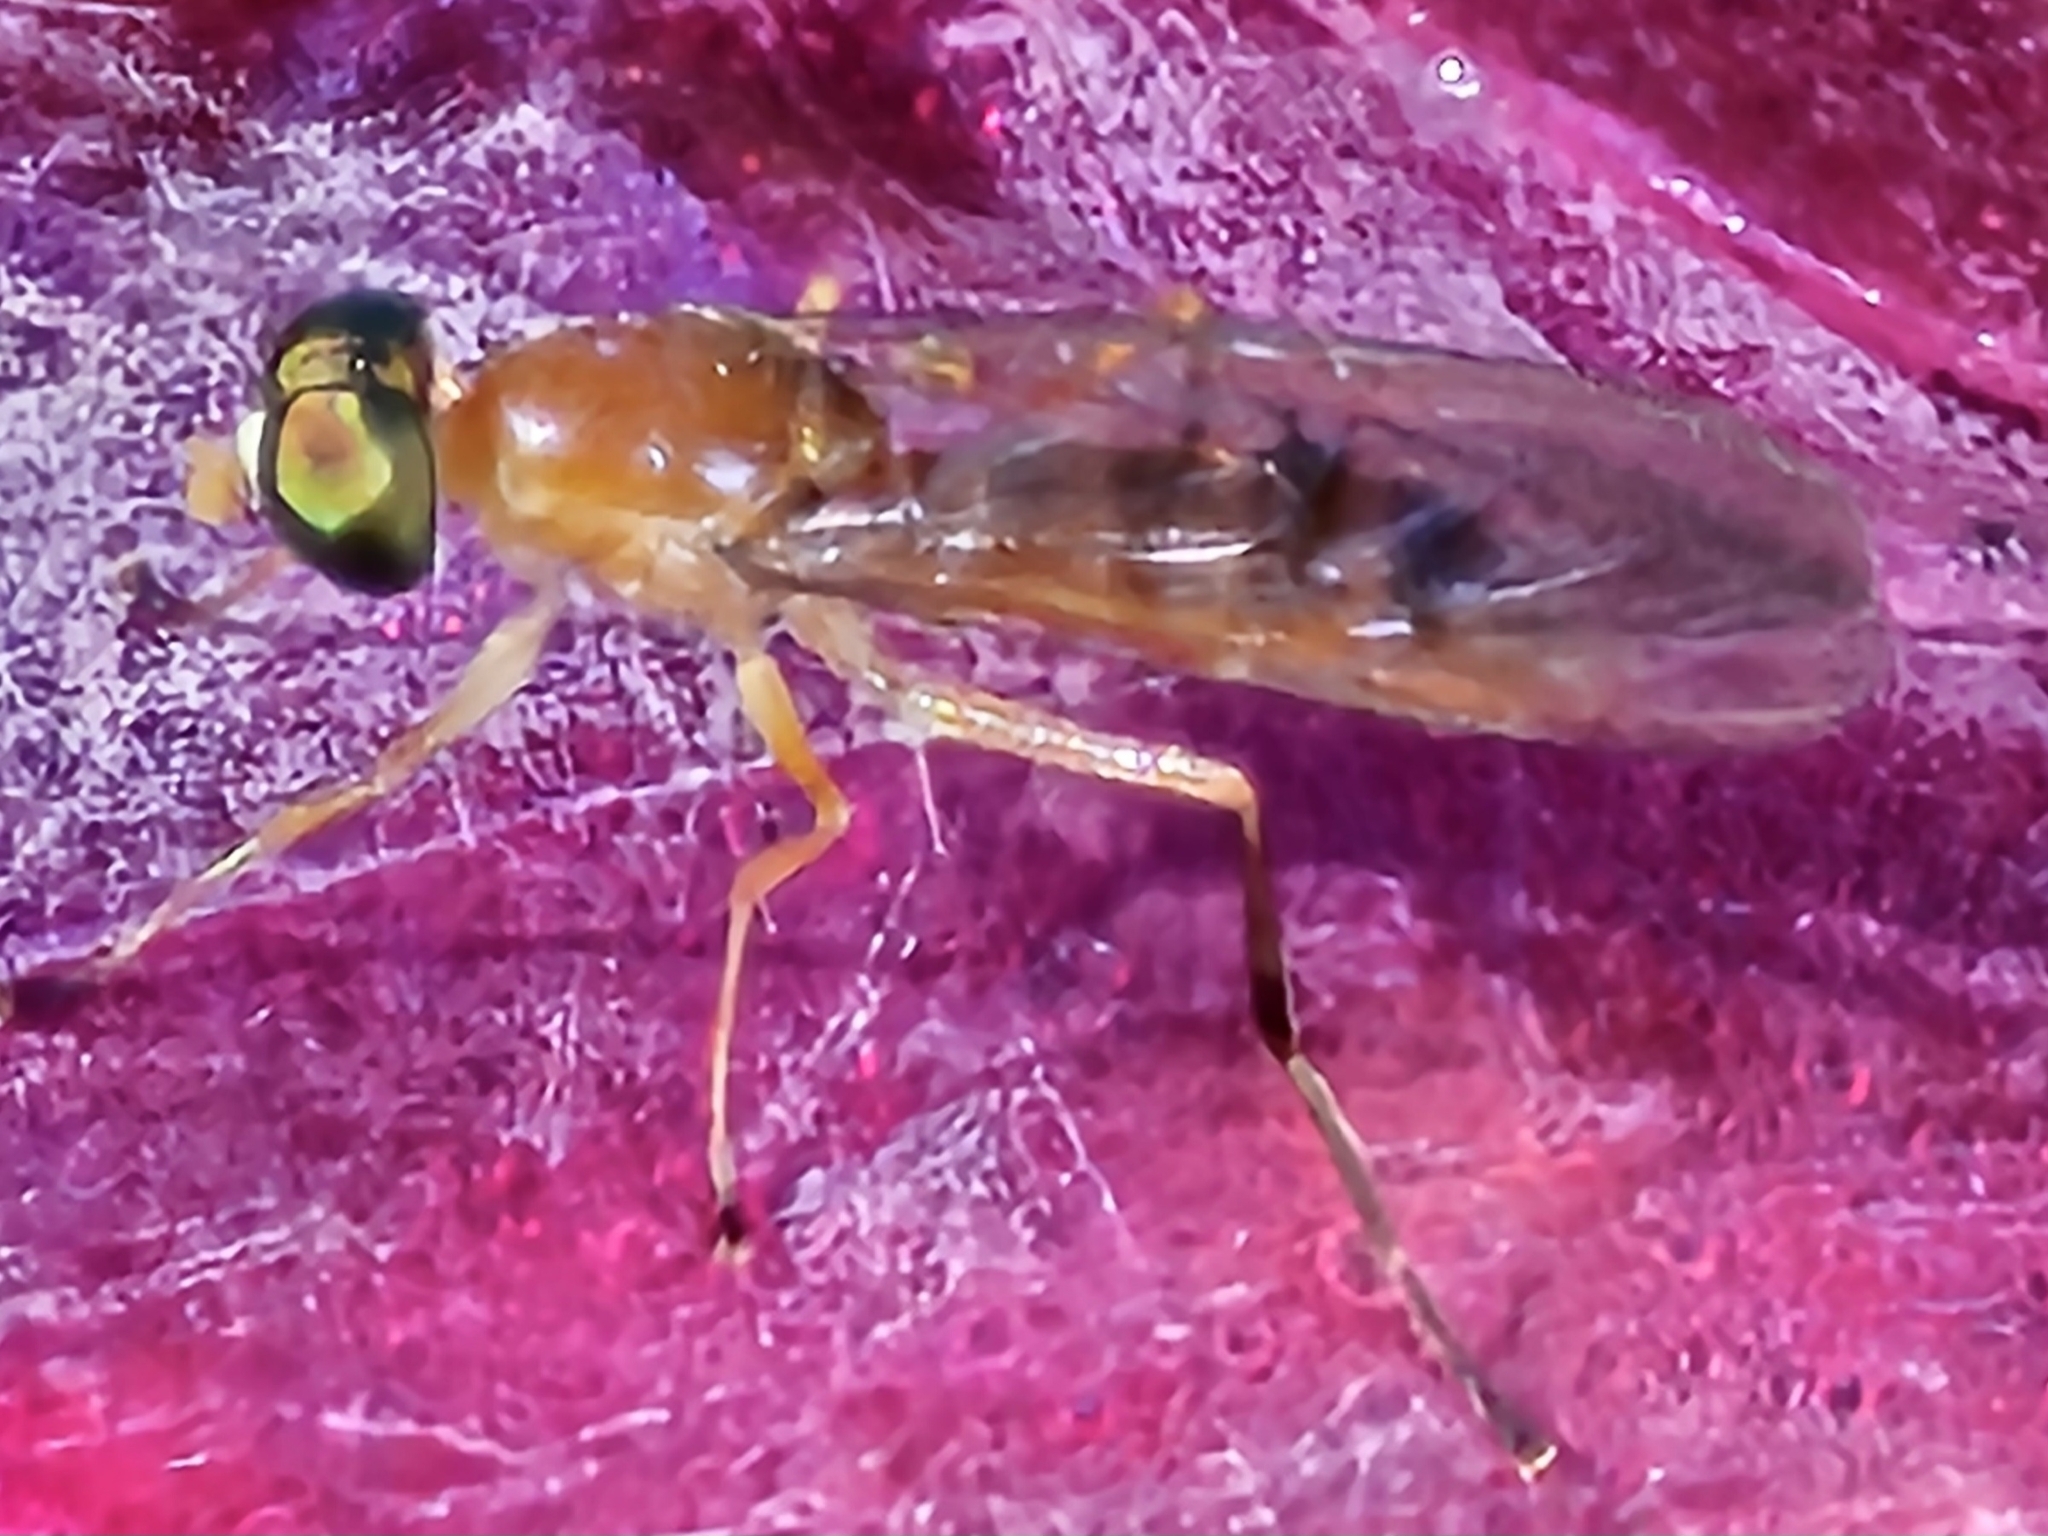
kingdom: Animalia
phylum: Arthropoda
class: Insecta
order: Diptera
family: Stratiomyidae
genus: Ptecticus
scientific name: Ptecticus trivittatus
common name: Compost fly
